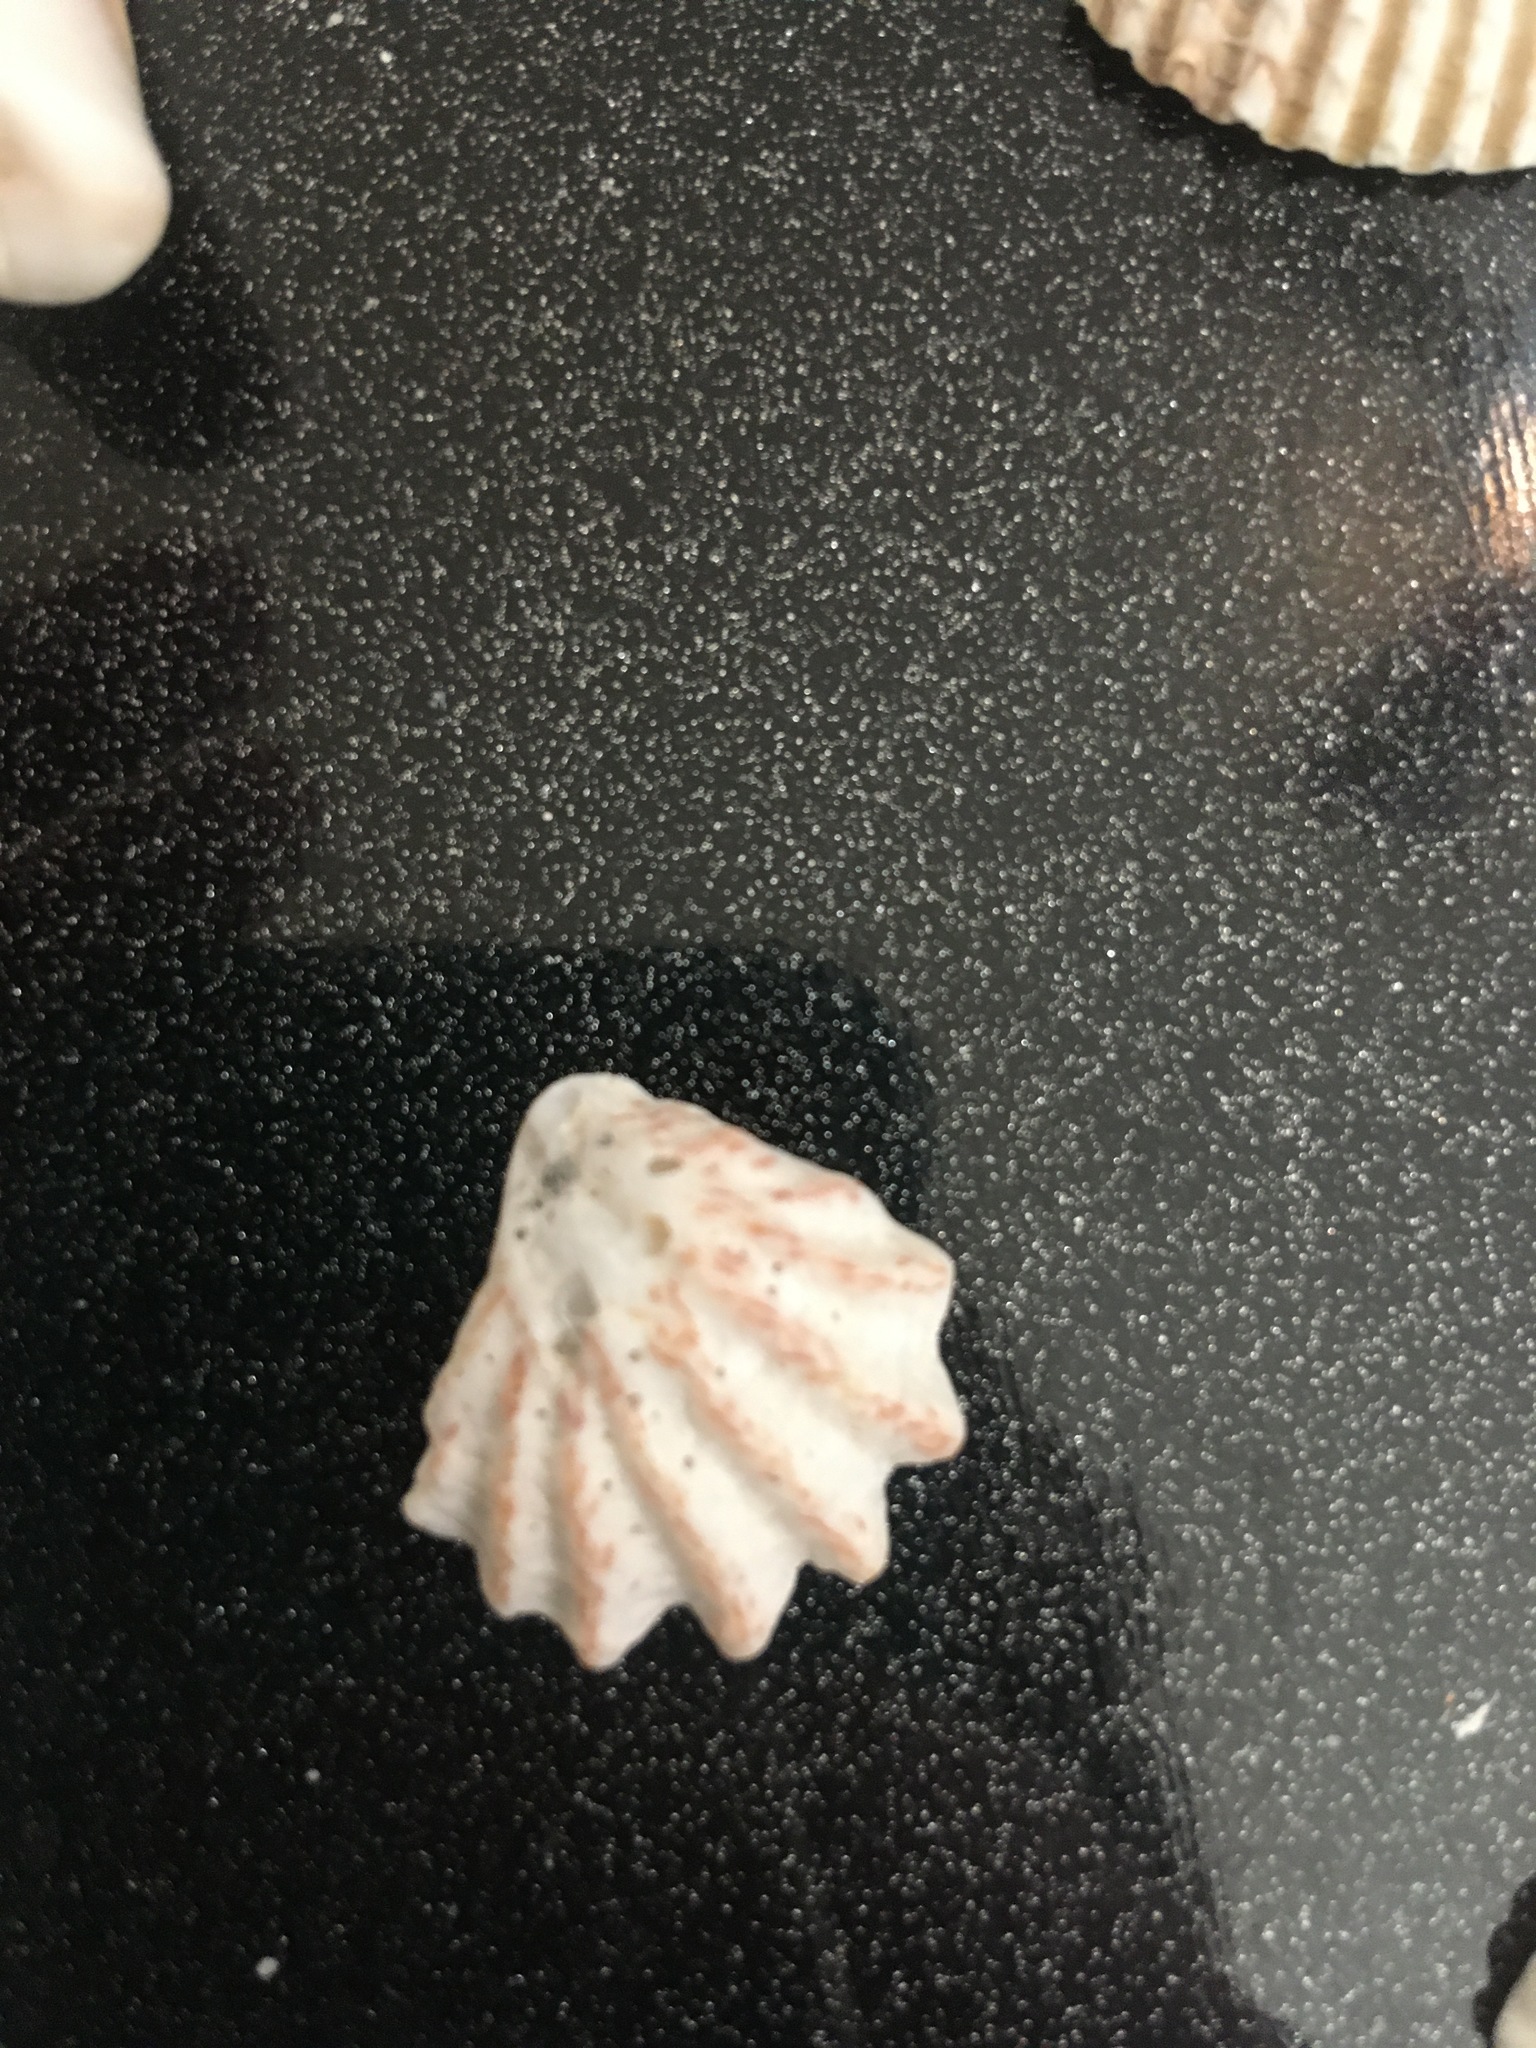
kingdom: Animalia
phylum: Mollusca
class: Bivalvia
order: Pectinida
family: Plicatulidae
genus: Plicatula
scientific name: Plicatula gibbosa
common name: Atlantic kitten's paw
